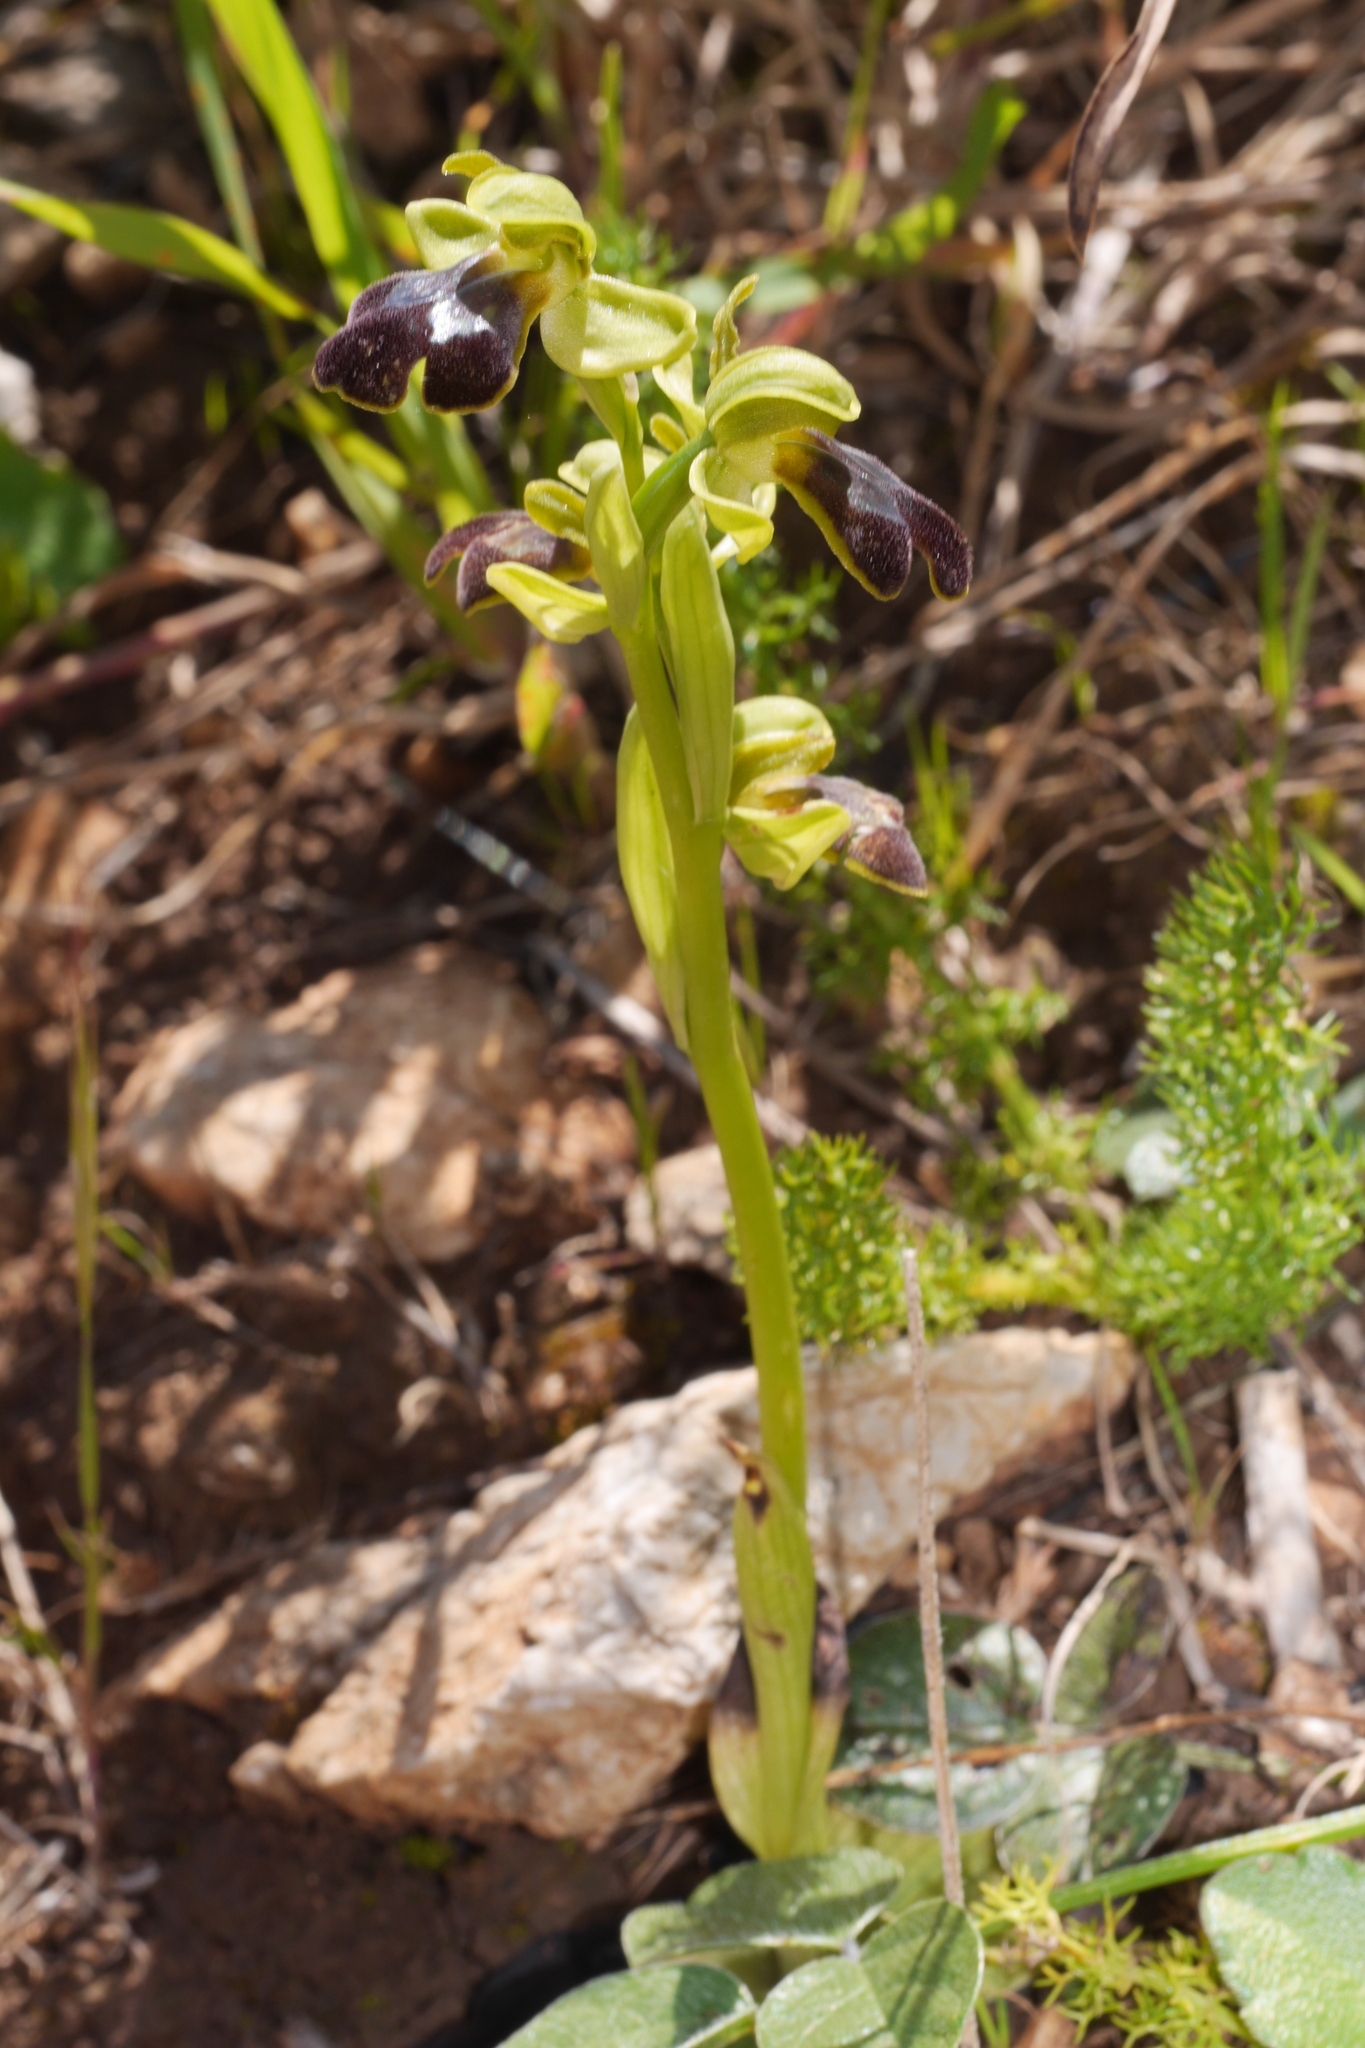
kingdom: Plantae
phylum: Tracheophyta
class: Liliopsida
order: Asparagales
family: Orchidaceae
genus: Ophrys
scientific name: Ophrys fusca
